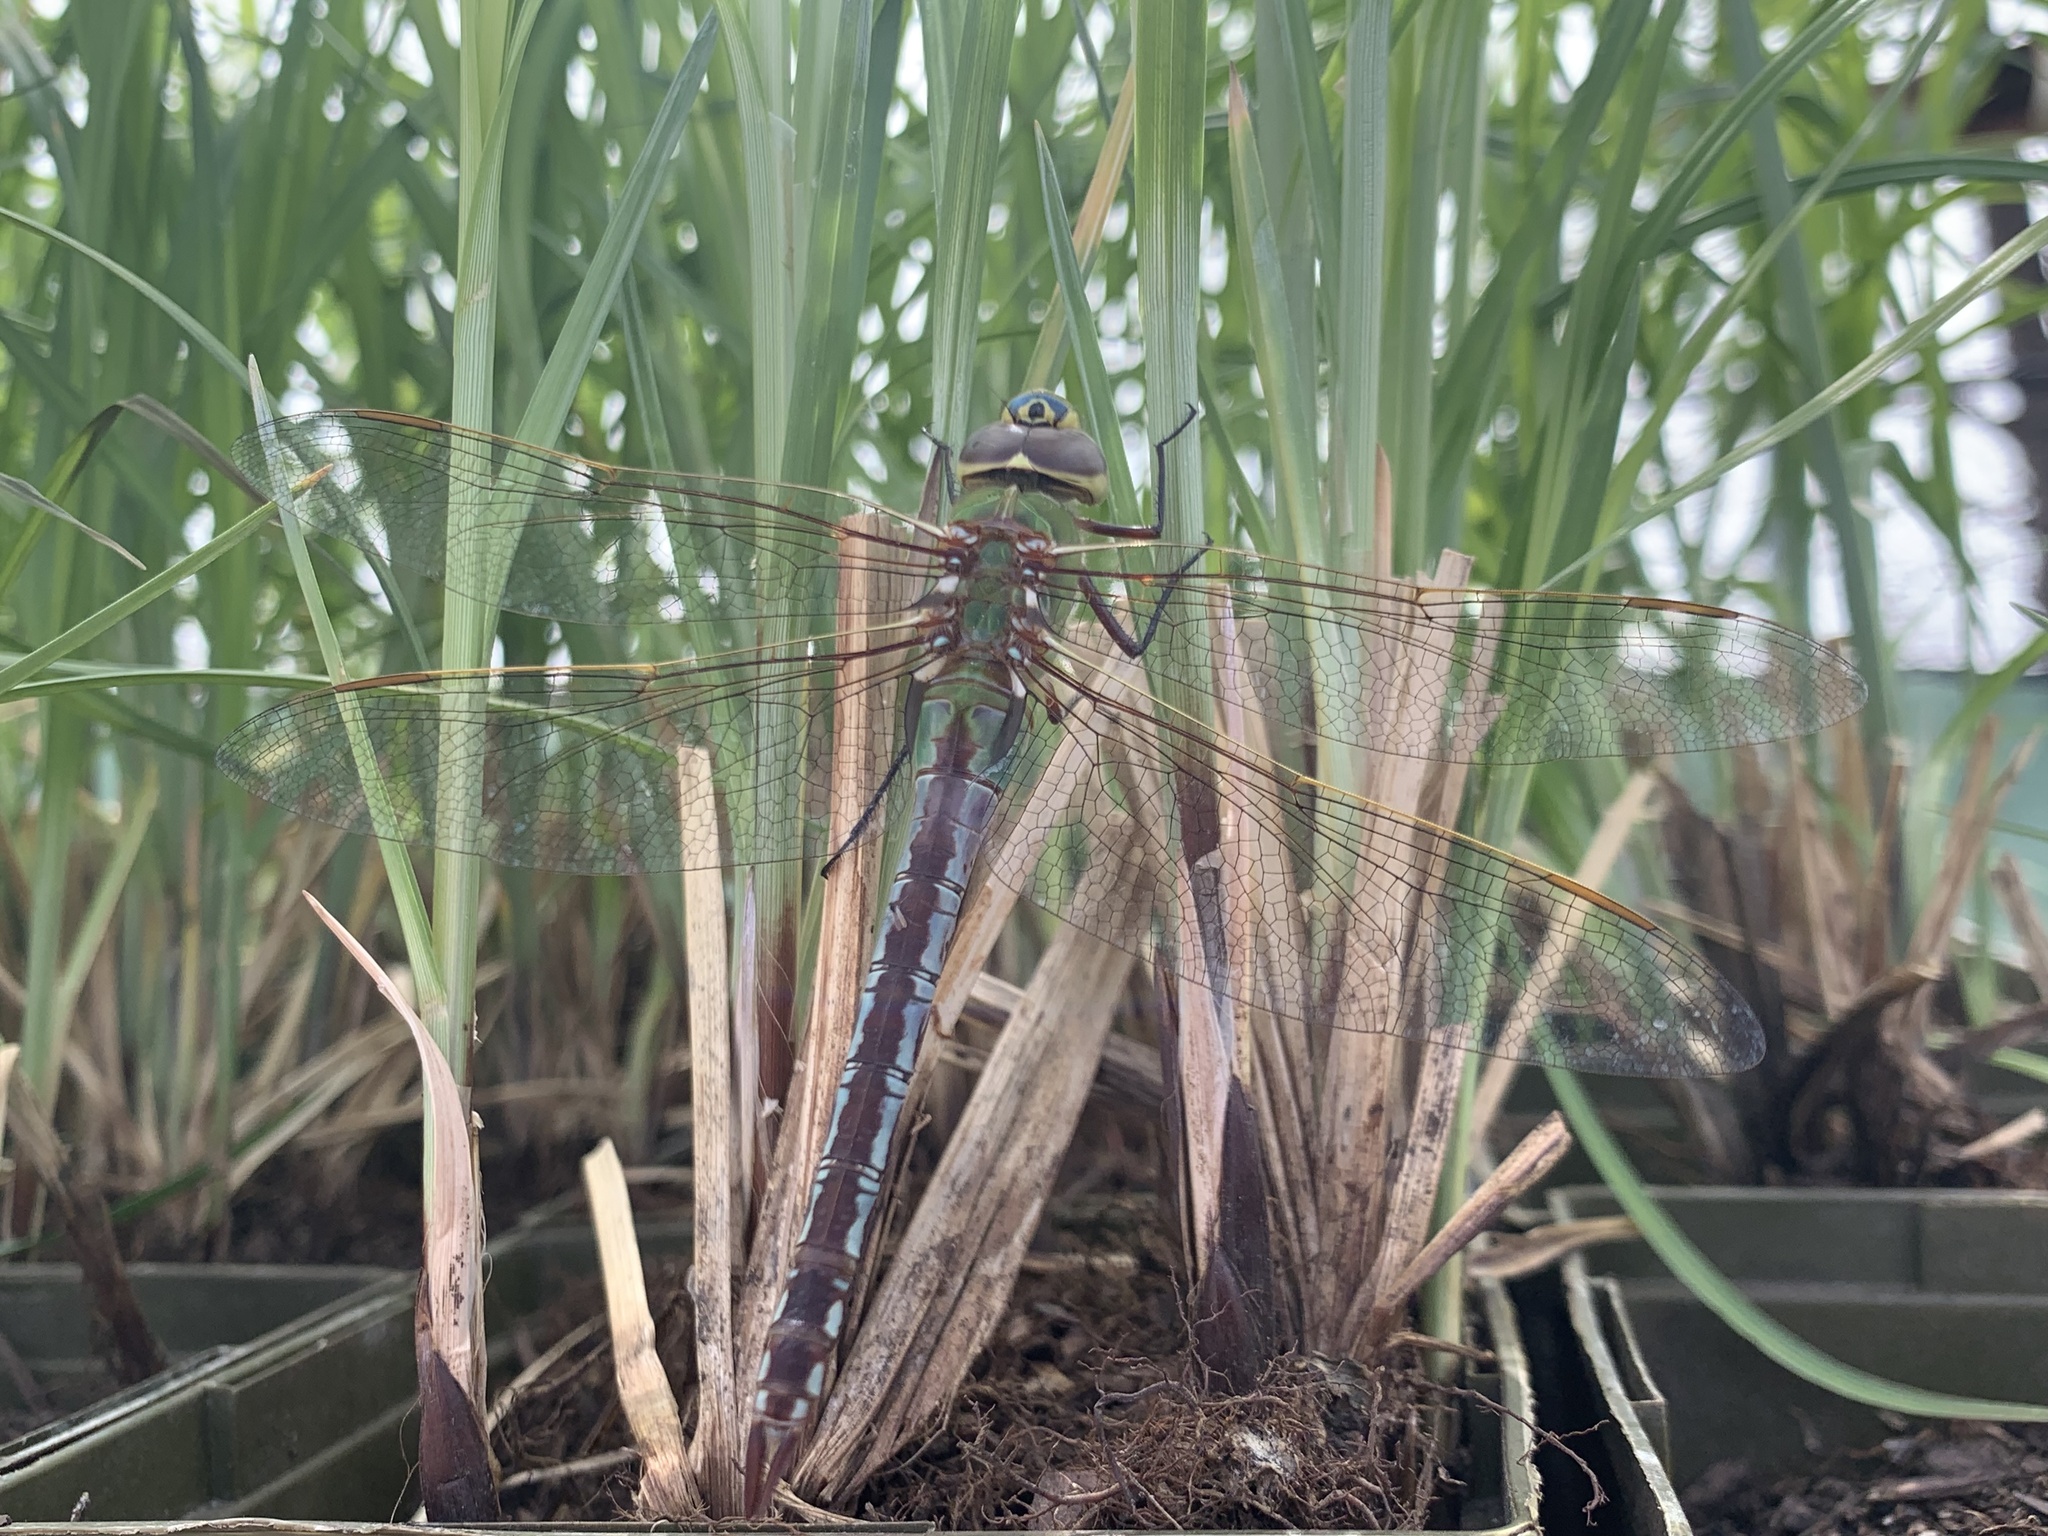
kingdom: Animalia
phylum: Arthropoda
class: Insecta
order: Odonata
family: Aeshnidae
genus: Anax
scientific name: Anax junius
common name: Common green darner
